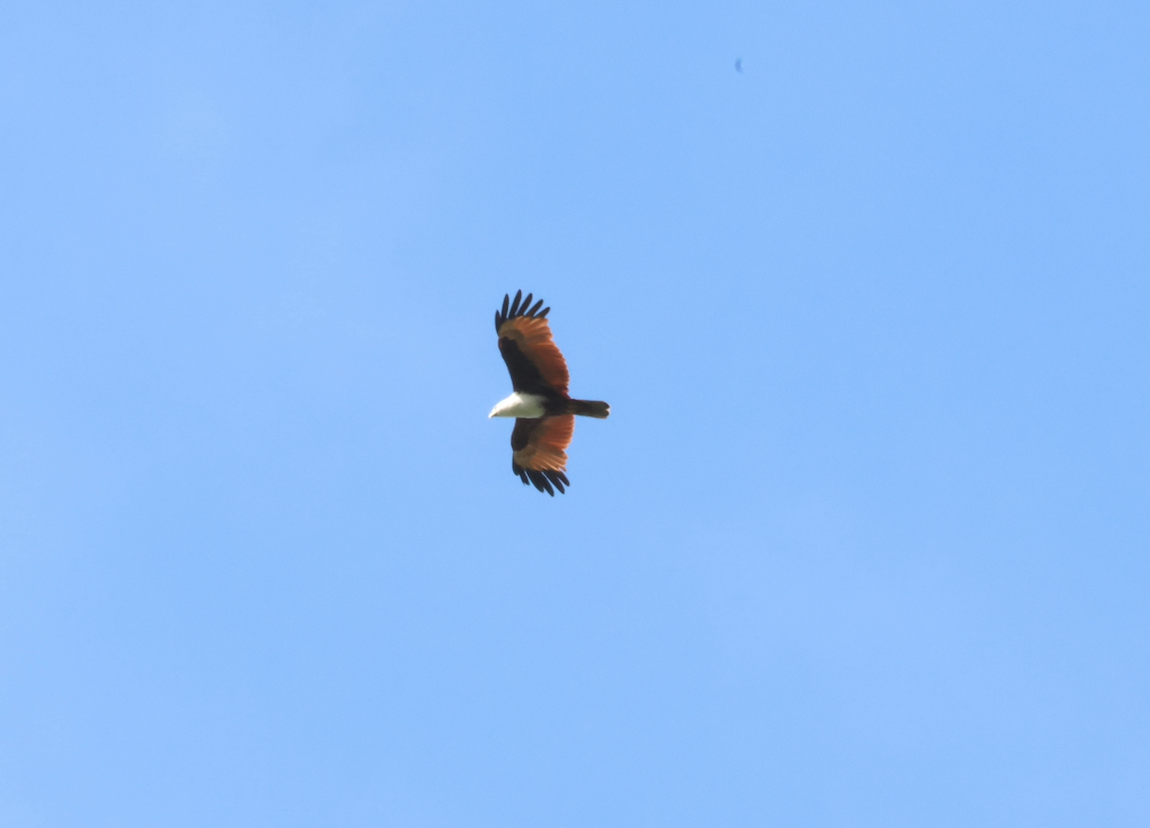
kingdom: Animalia
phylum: Chordata
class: Aves
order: Accipitriformes
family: Accipitridae
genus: Haliastur
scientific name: Haliastur indus
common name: Brahminy kite
